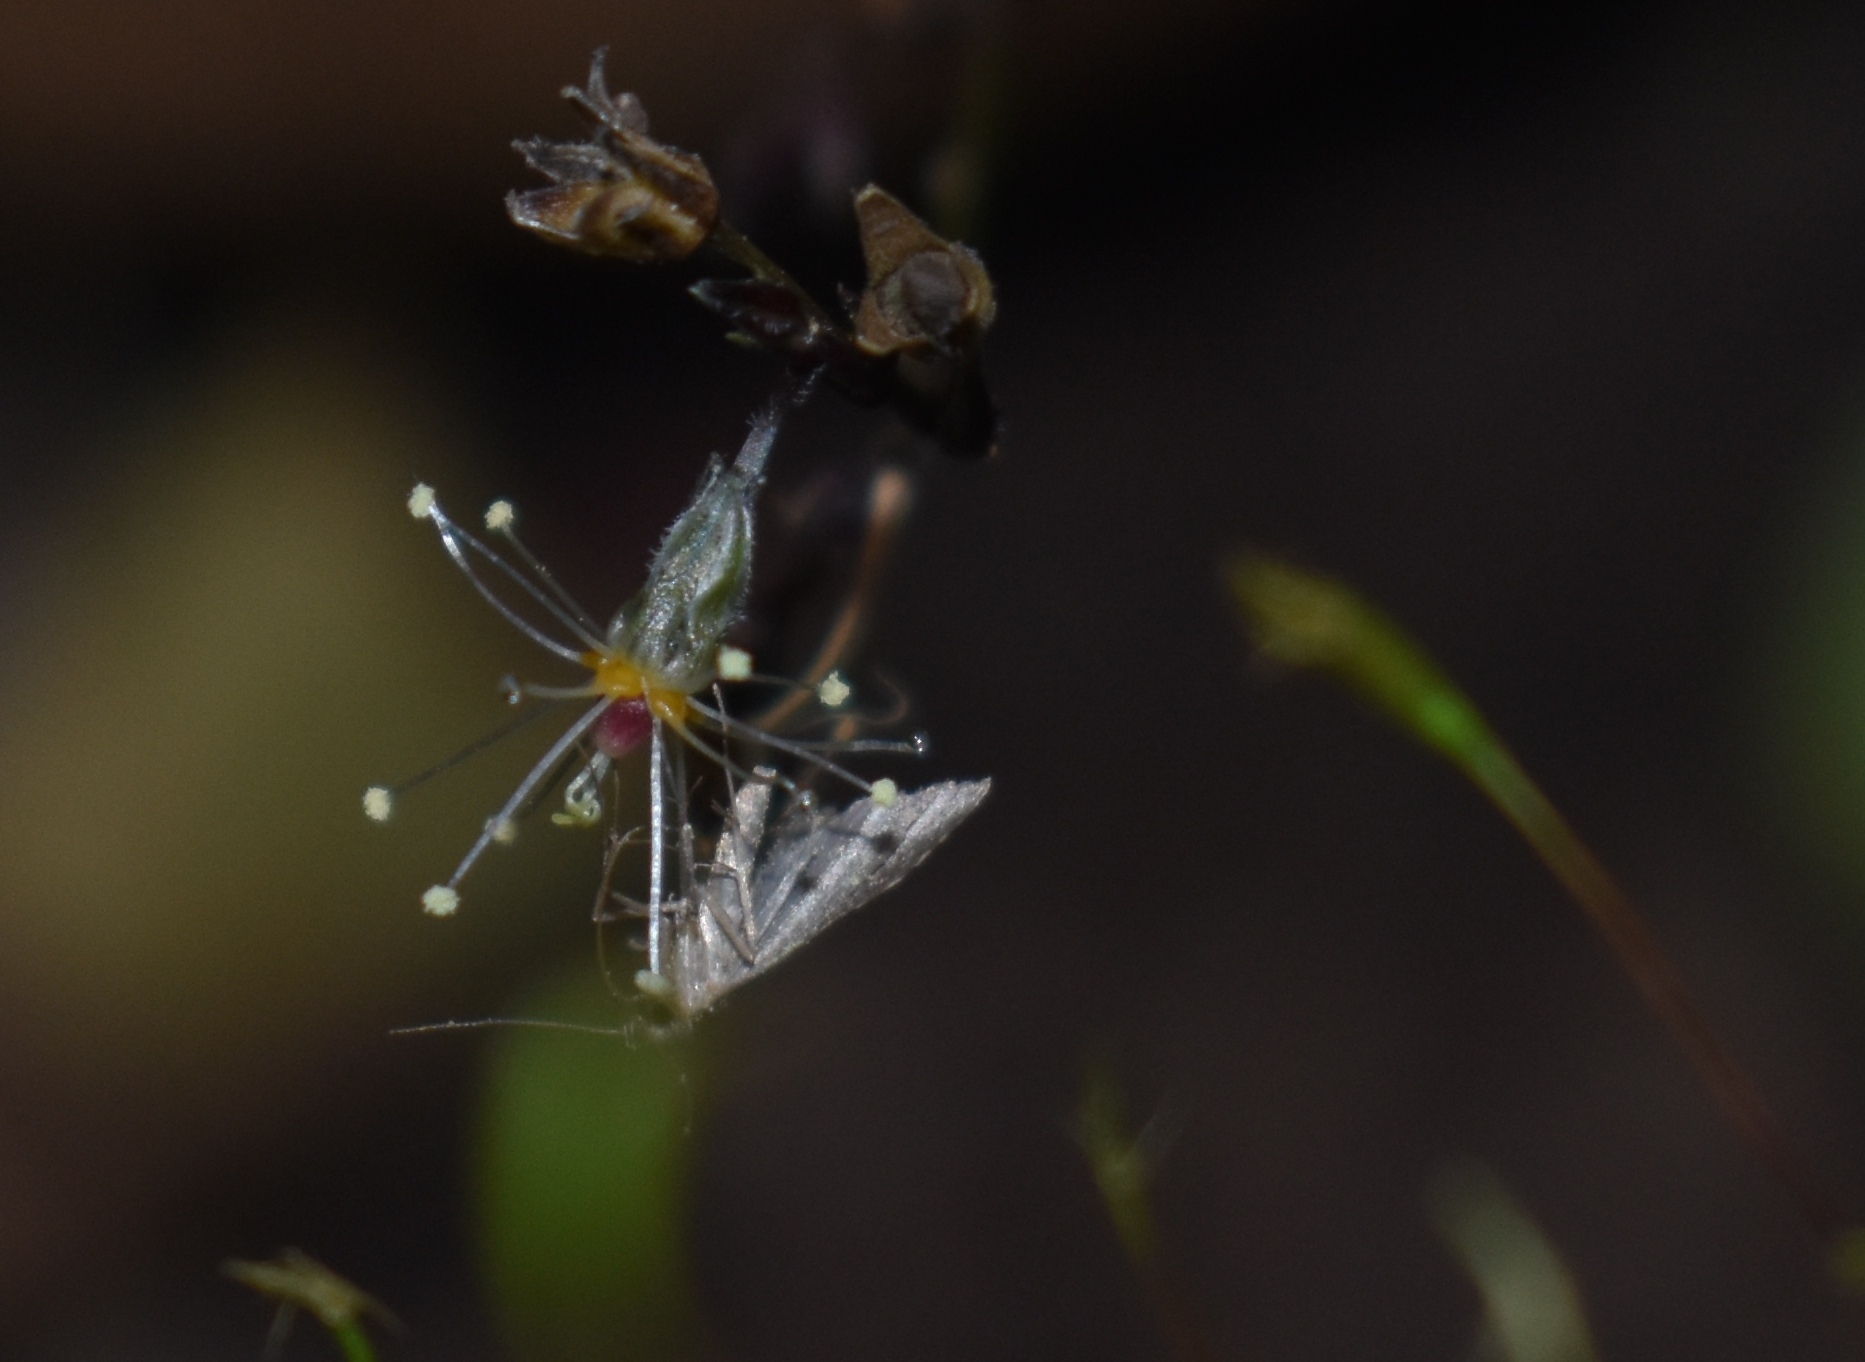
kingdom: Animalia
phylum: Arthropoda
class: Insecta
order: Lepidoptera
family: Erebidae
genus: Pseudoschrankia
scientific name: Pseudoschrankia brevipalpis
